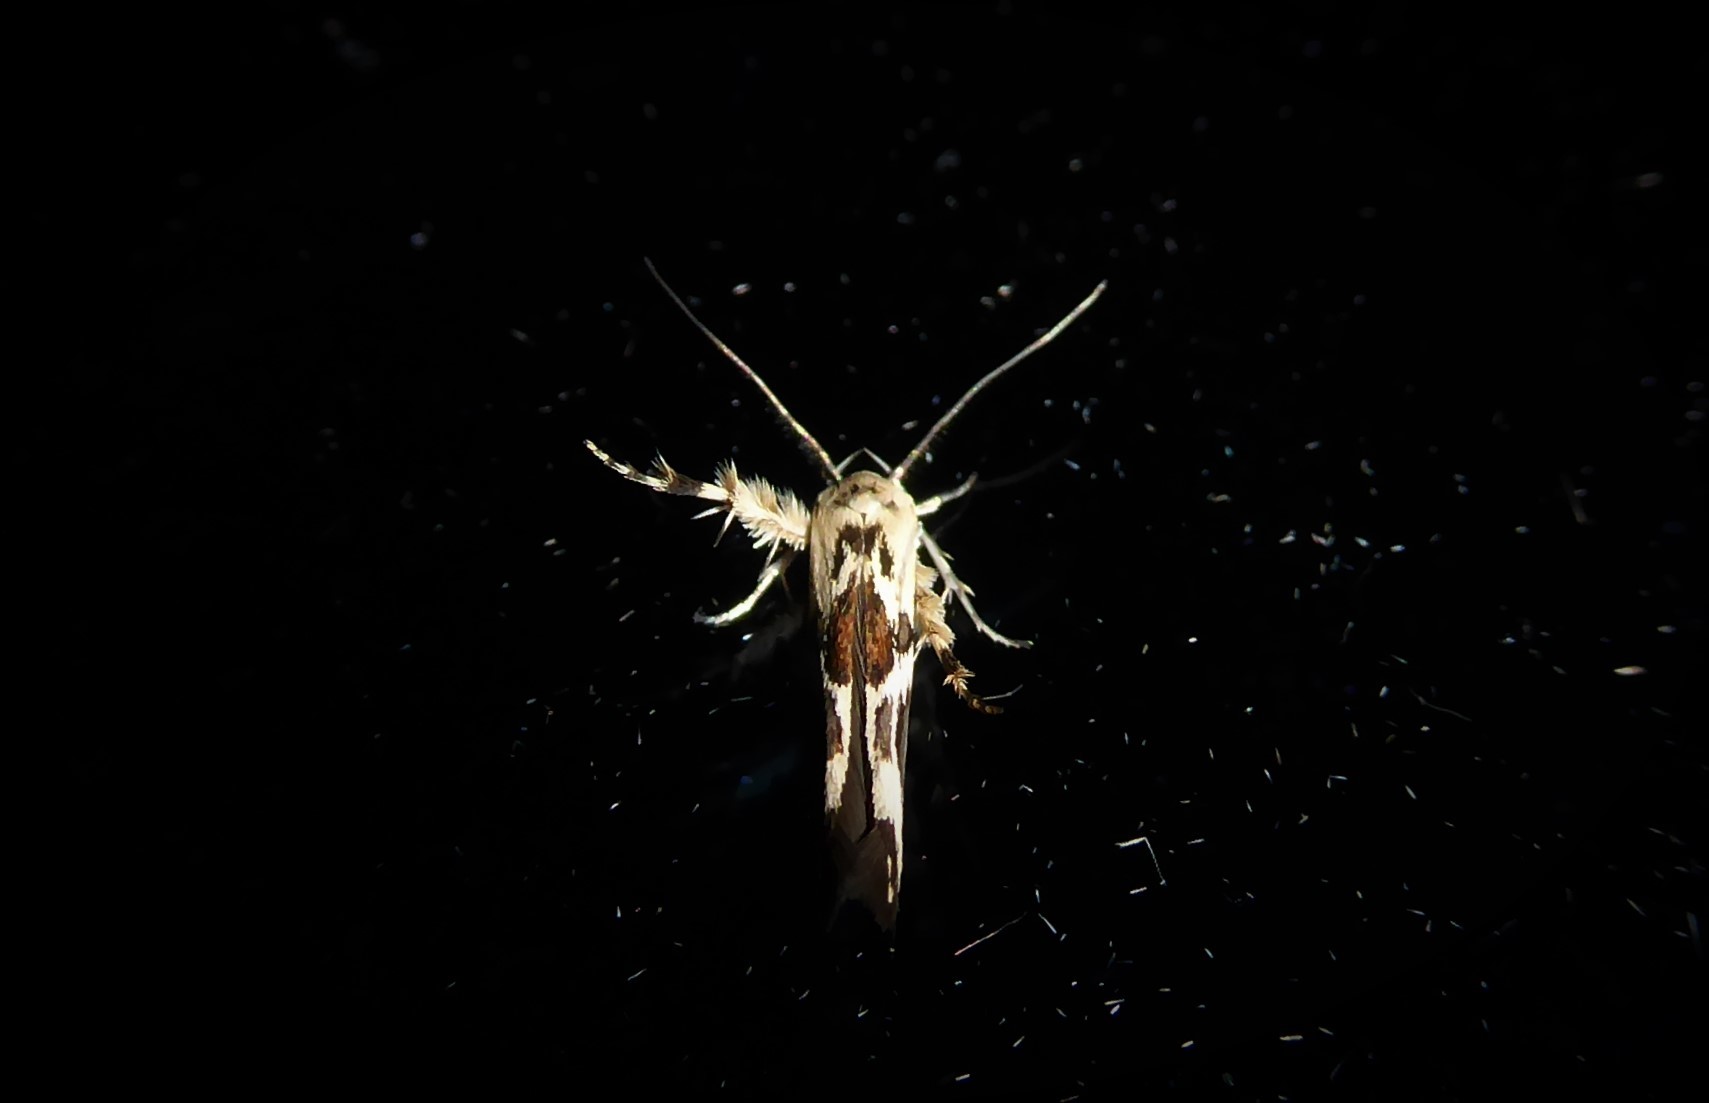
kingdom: Animalia
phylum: Arthropoda
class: Insecta
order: Lepidoptera
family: Stathmopodidae
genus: Stathmopoda
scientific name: Stathmopoda melanochra
